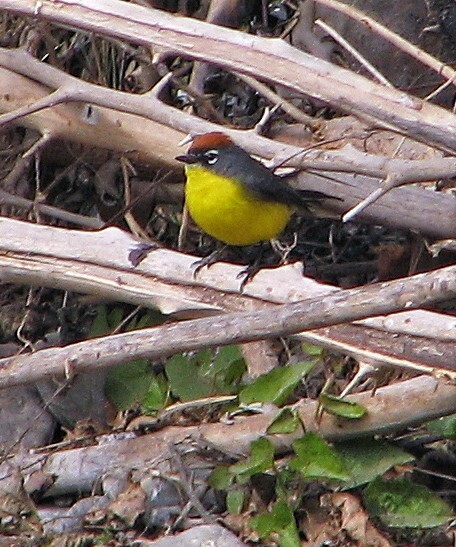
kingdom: Animalia
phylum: Chordata
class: Aves
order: Passeriformes
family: Parulidae
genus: Myioborus
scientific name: Myioborus brunniceps
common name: Brown-capped whitestart
